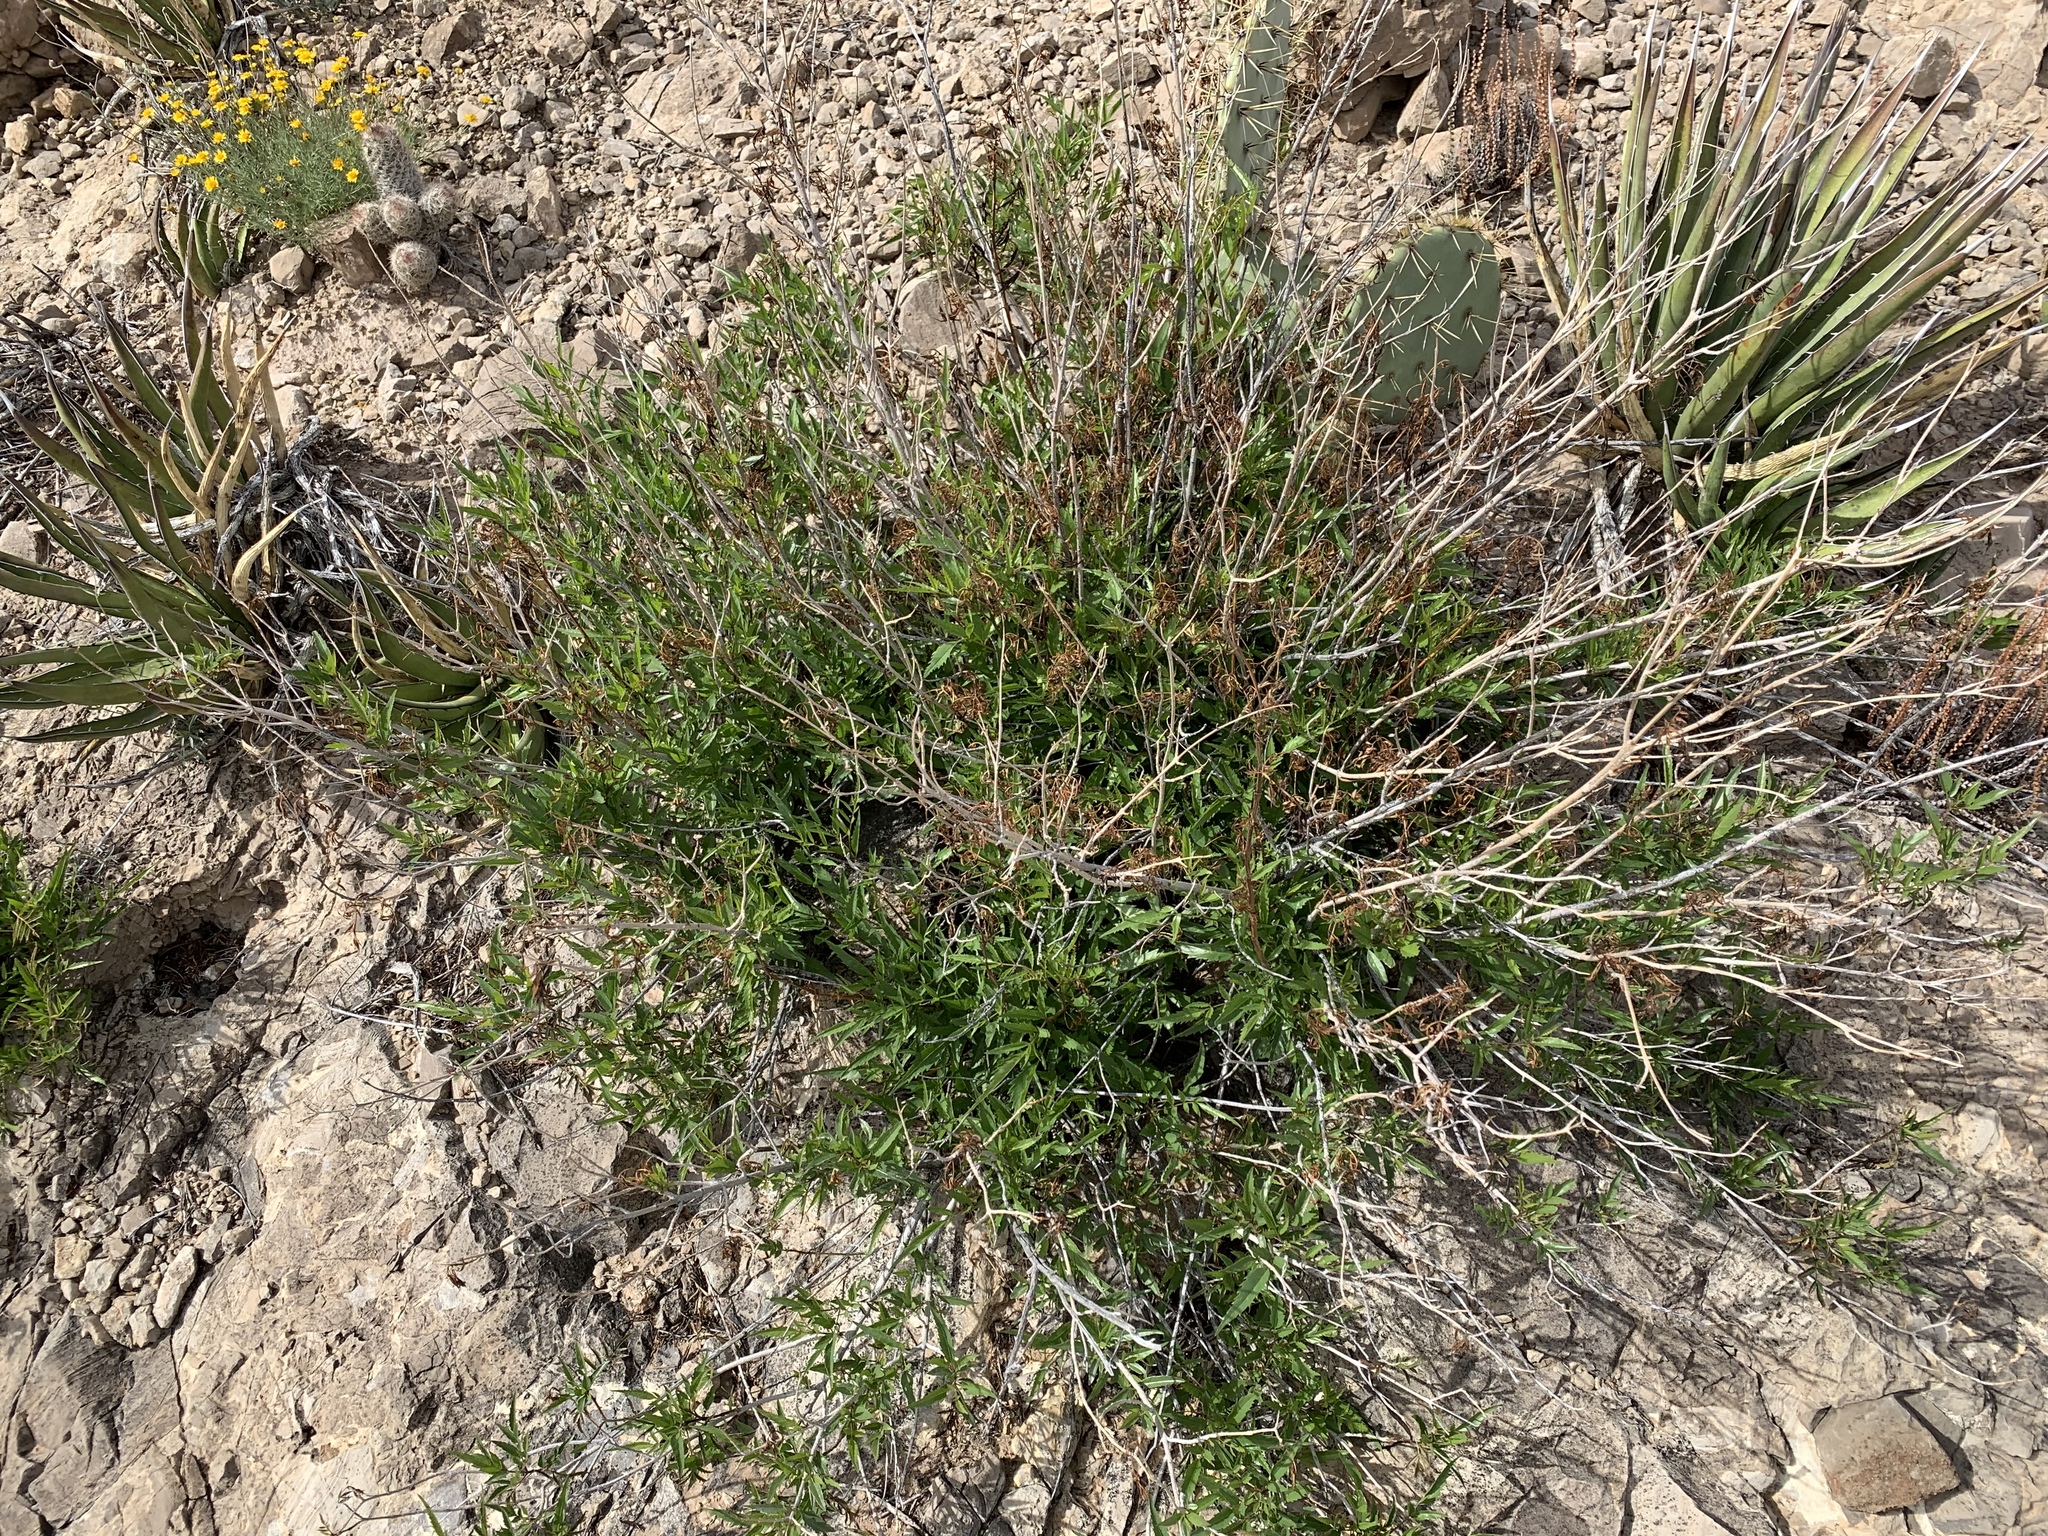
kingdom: Plantae
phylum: Tracheophyta
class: Magnoliopsida
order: Lamiales
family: Bignoniaceae
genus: Tecoma
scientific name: Tecoma stans
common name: Yellow trumpetbush
